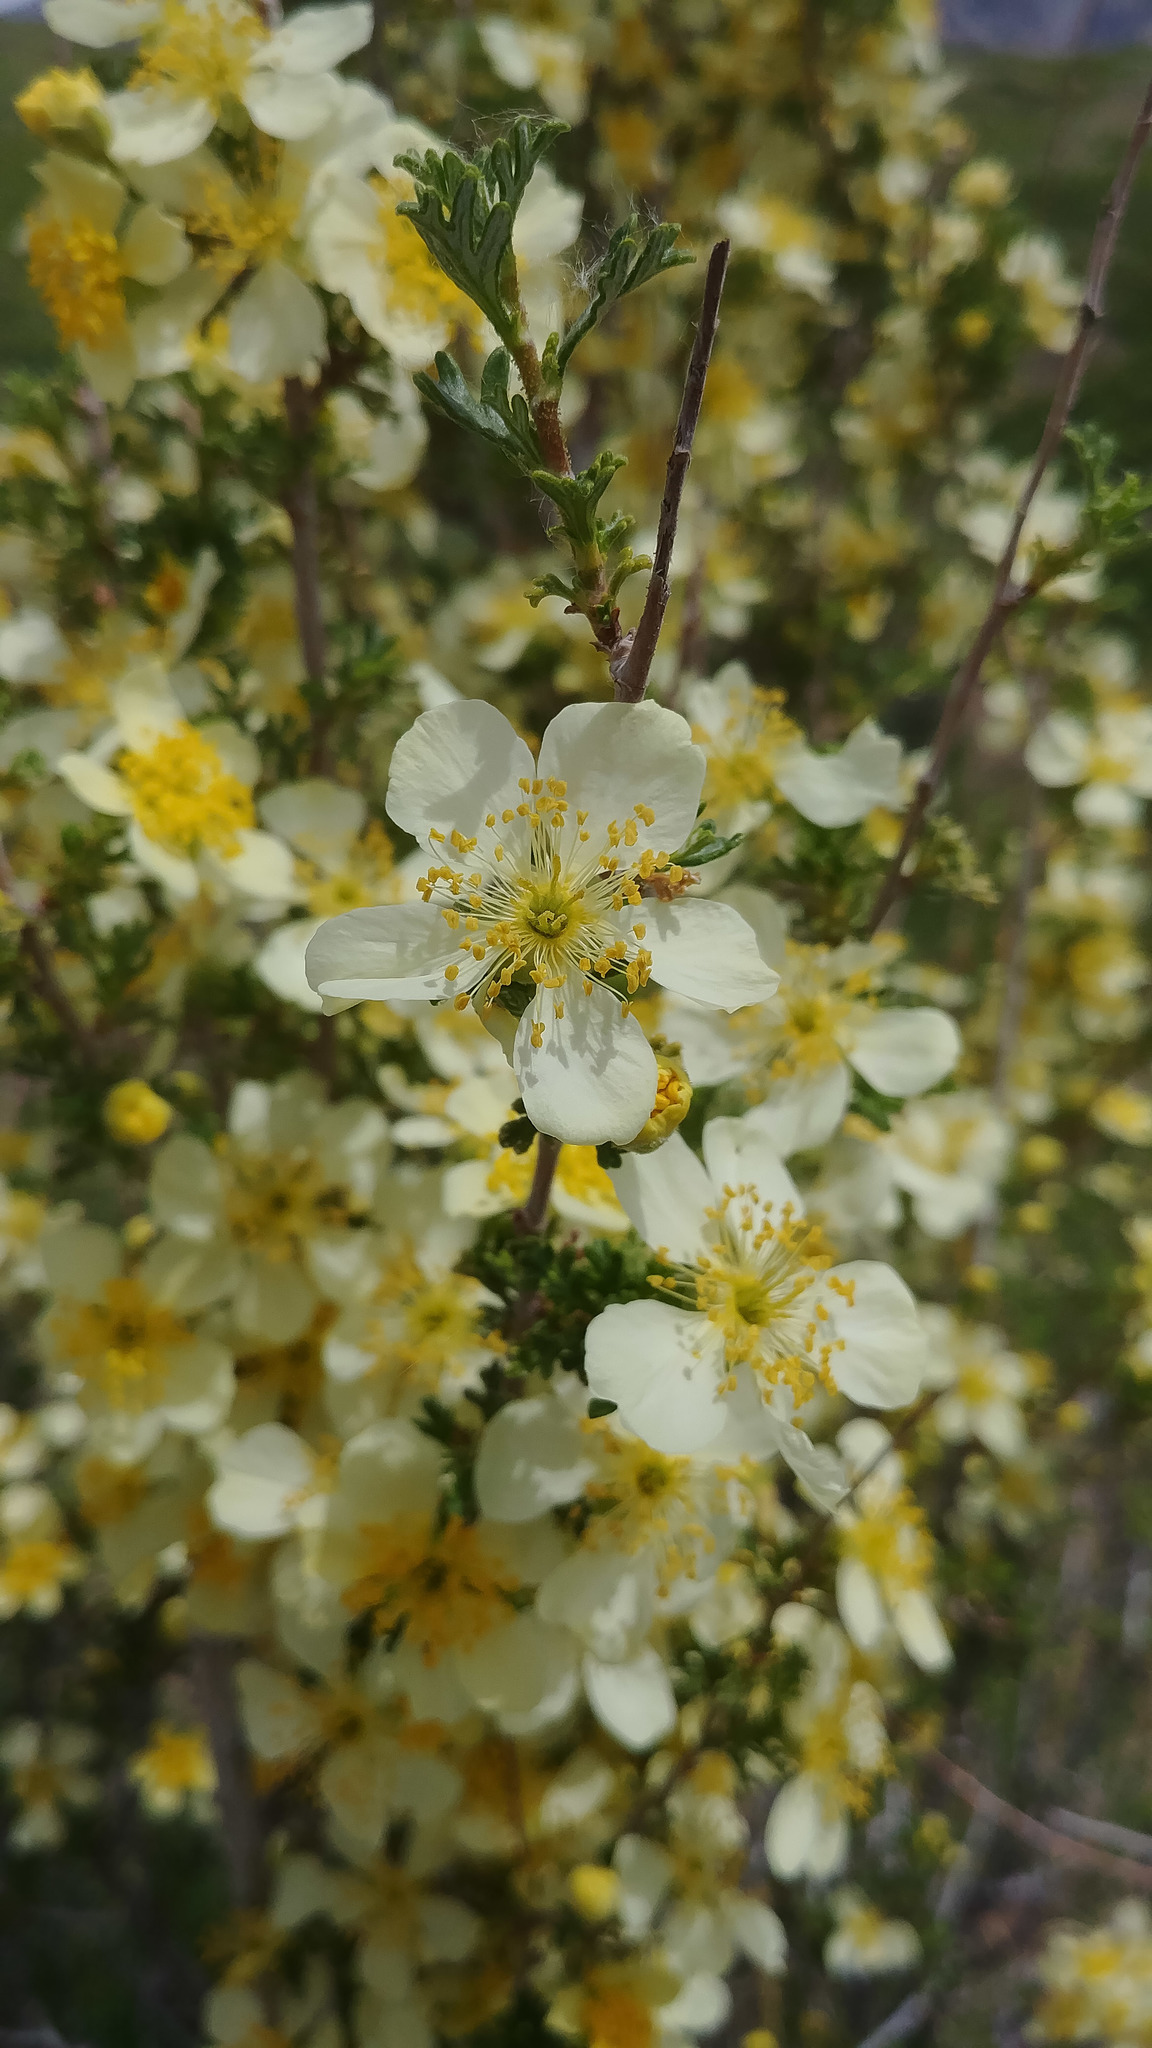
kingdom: Plantae
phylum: Tracheophyta
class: Magnoliopsida
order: Rosales
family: Rosaceae
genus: Purshia
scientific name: Purshia stansburiana
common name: Stansbury's cliffrose
